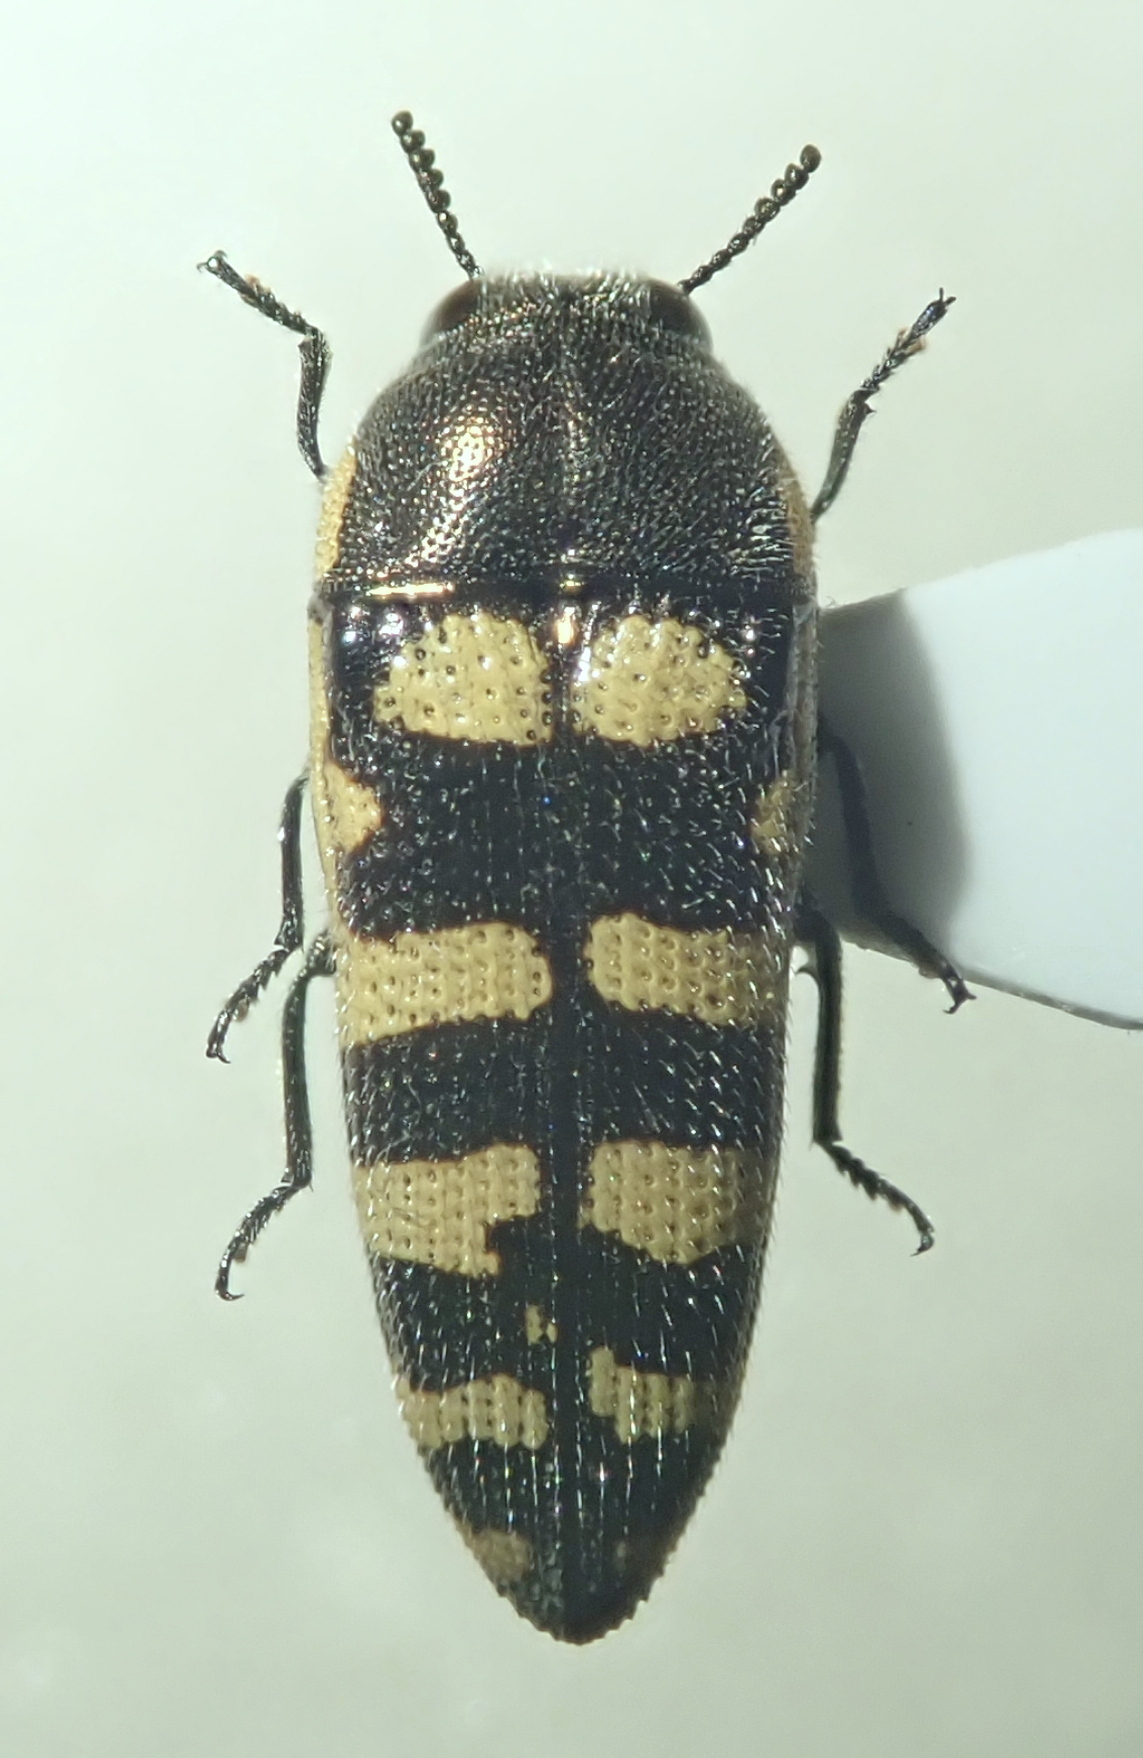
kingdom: Animalia
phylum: Arthropoda
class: Insecta
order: Coleoptera
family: Buprestidae
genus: Acmaeodera
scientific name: Acmaeodera alicia
